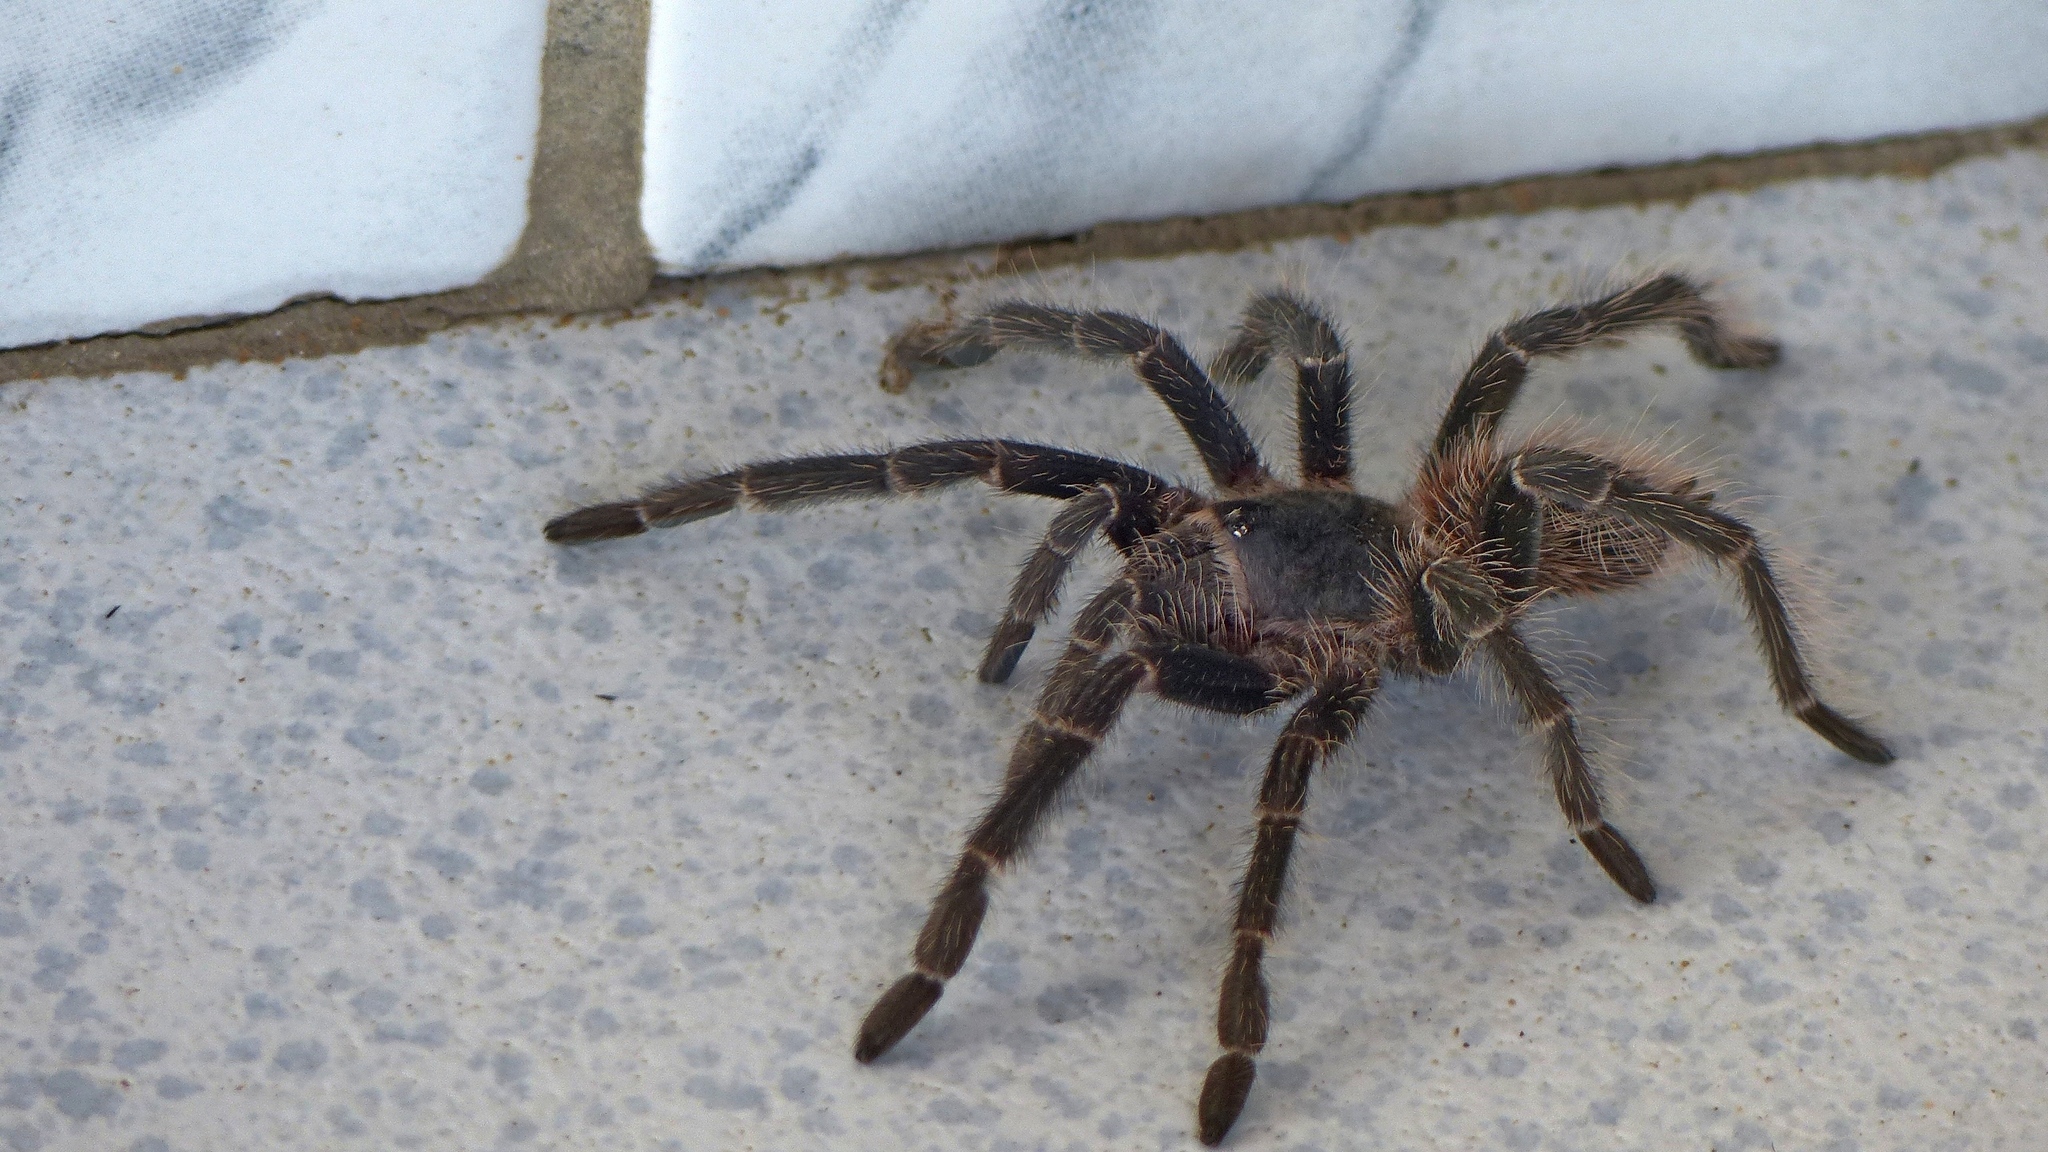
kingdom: Animalia
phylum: Arthropoda
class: Arachnida
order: Araneae
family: Theraphosidae
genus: Lasiodora
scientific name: Lasiodora parahybana
